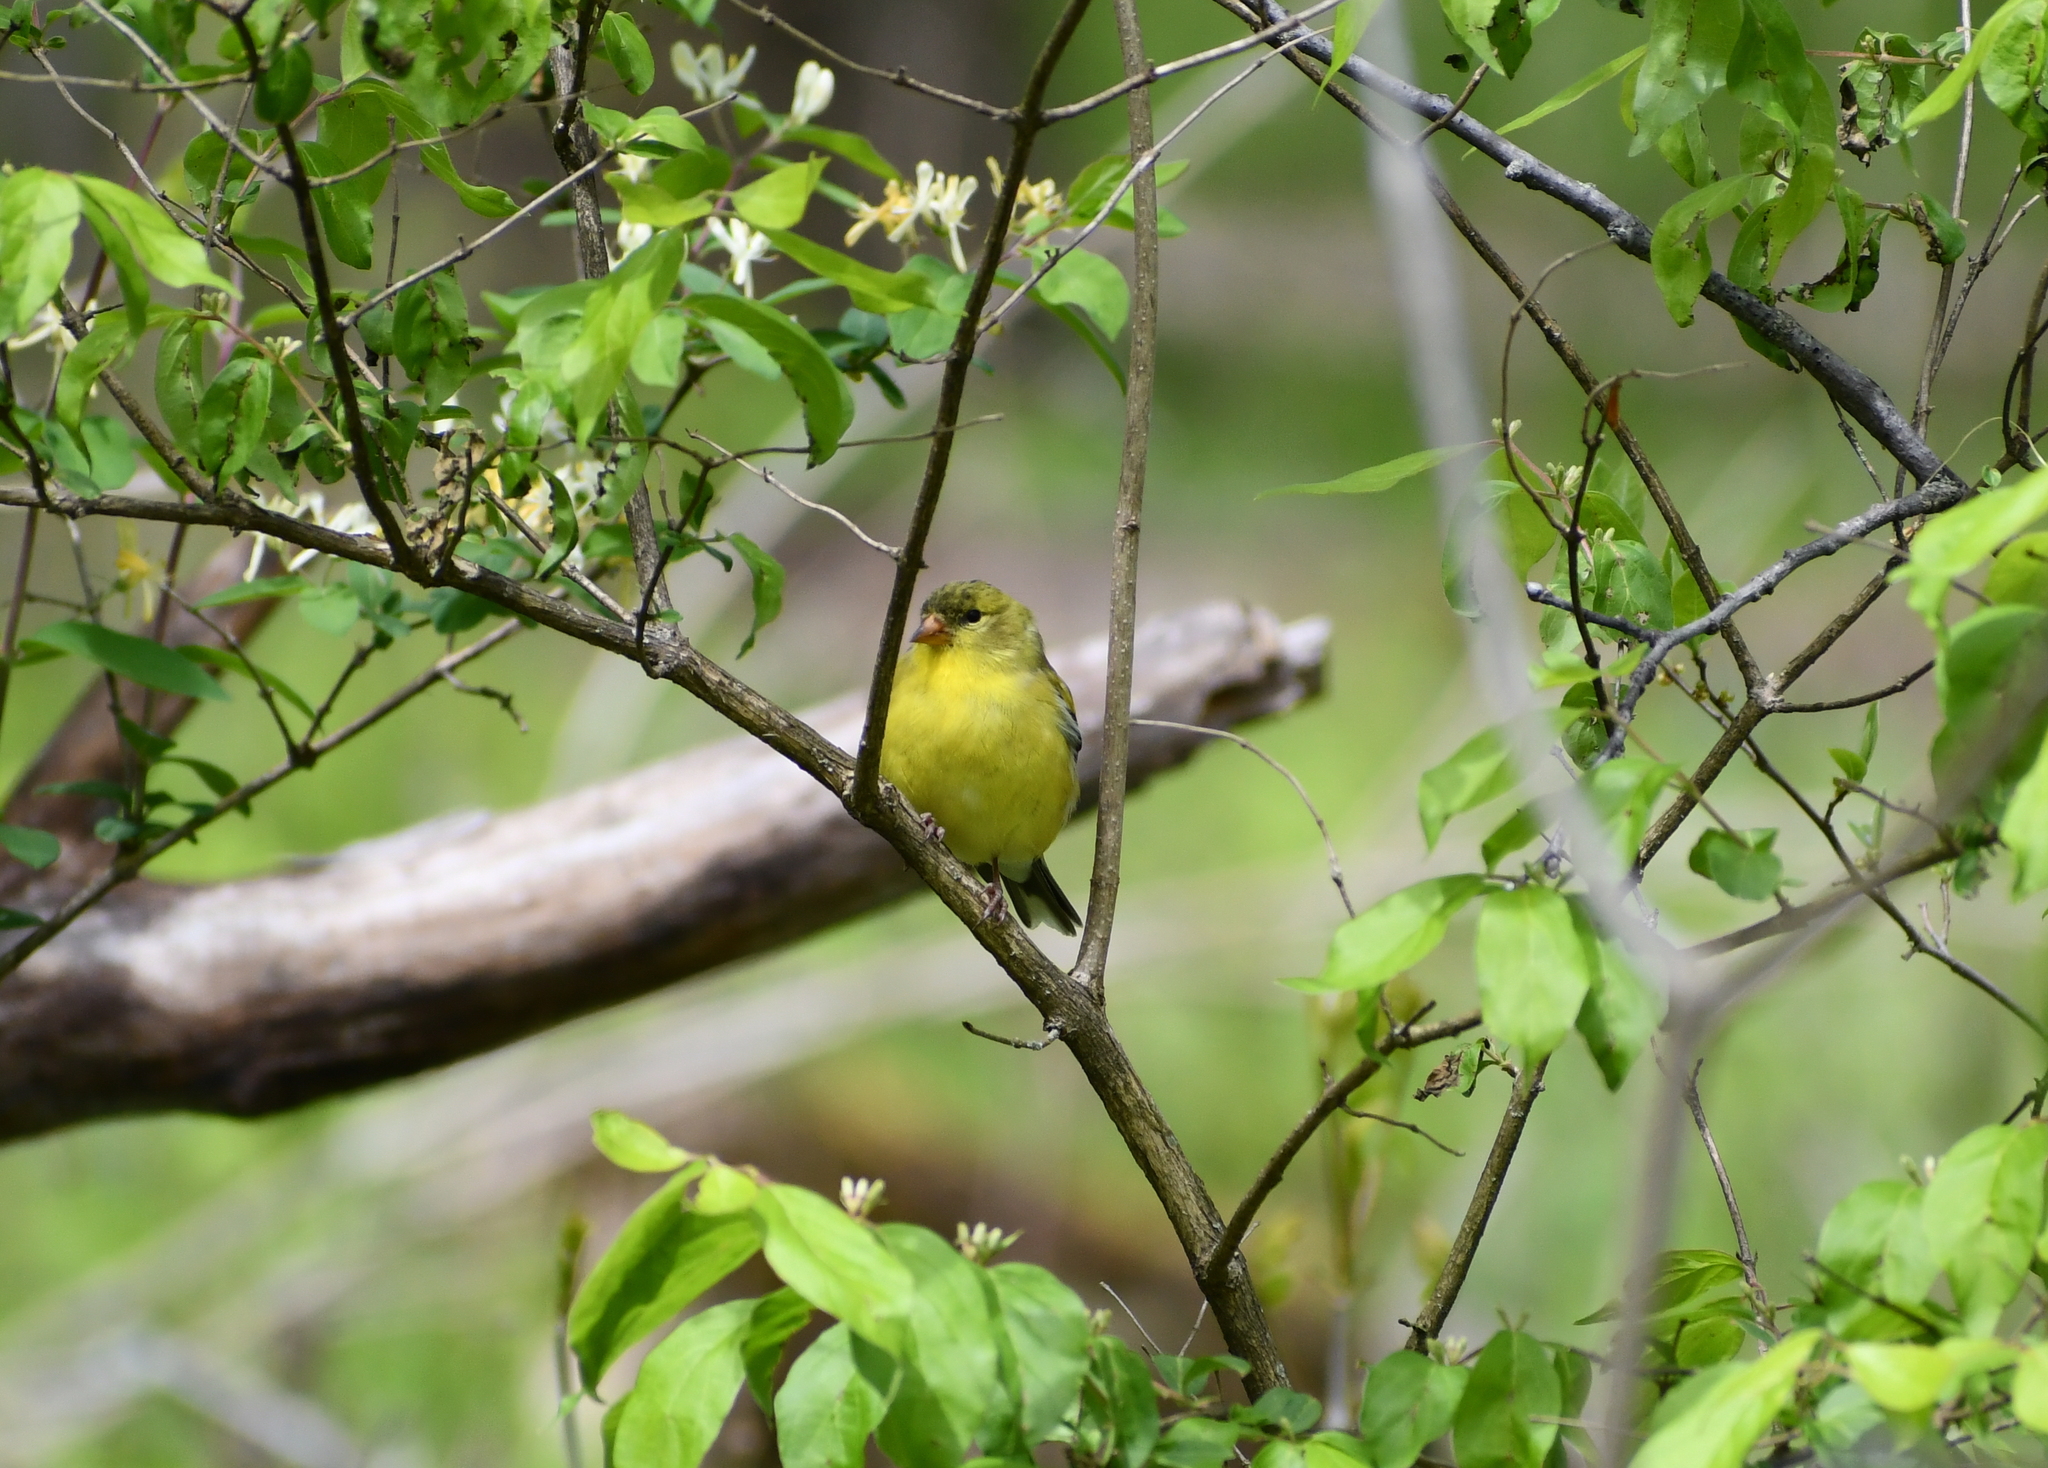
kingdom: Animalia
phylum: Chordata
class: Aves
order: Passeriformes
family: Fringillidae
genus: Spinus
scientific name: Spinus tristis
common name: American goldfinch
